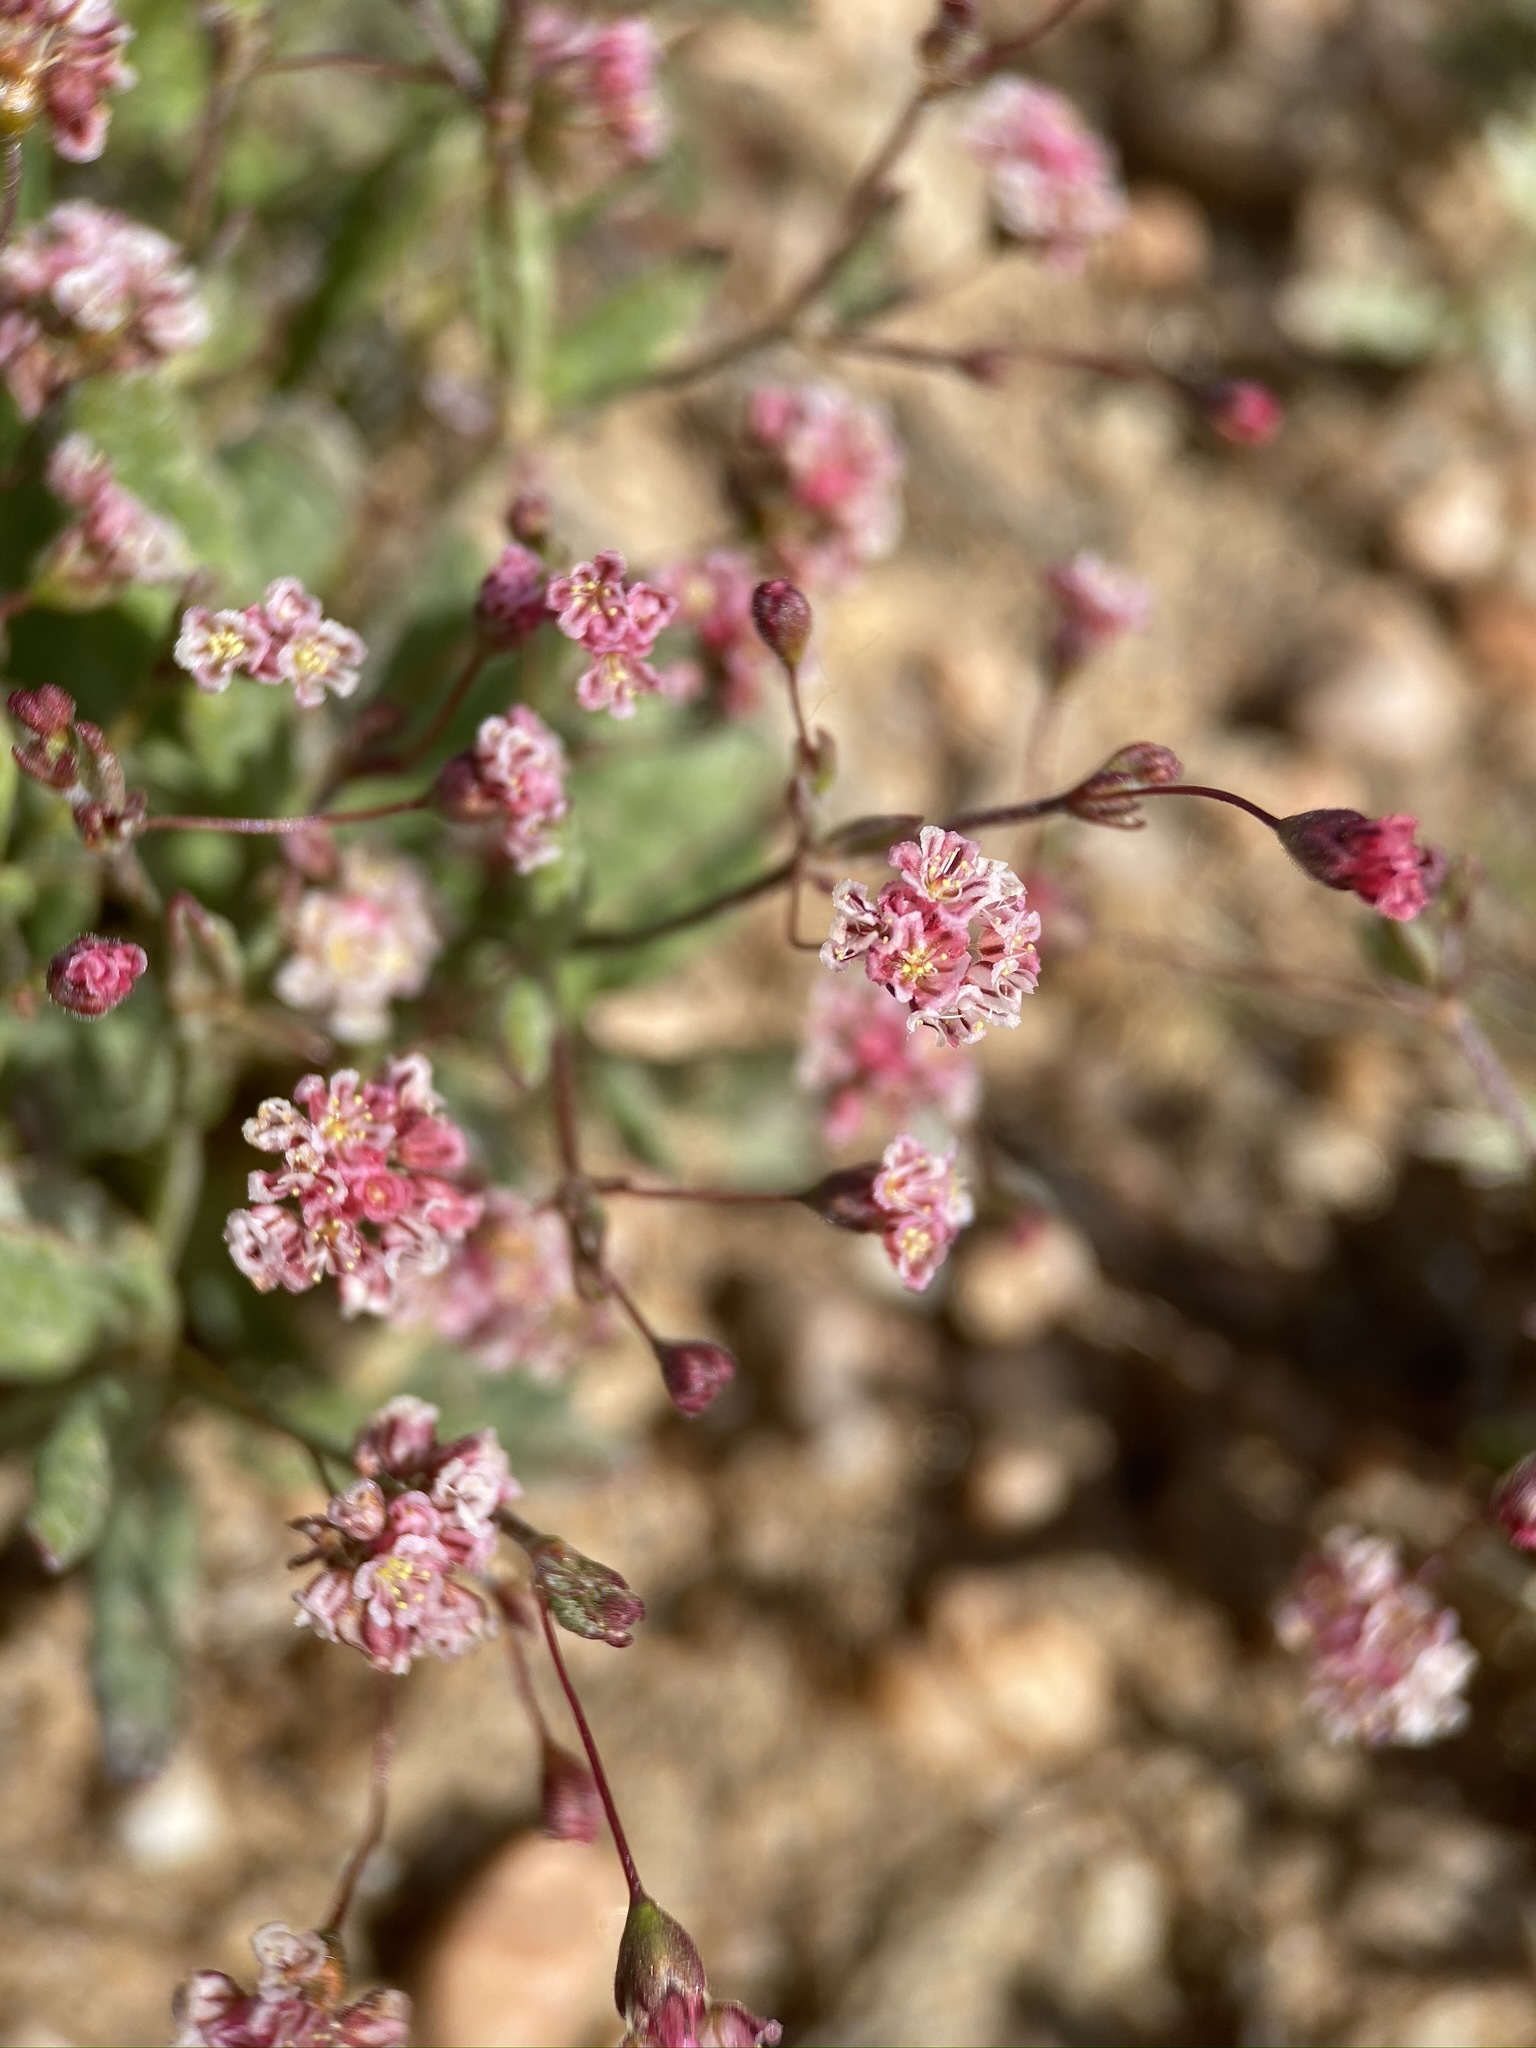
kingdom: Plantae
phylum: Tracheophyta
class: Magnoliopsida
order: Caryophyllales
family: Polygonaceae
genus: Eriogonum
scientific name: Eriogonum gracillimum
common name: Rose-and-white wild buckwheat
